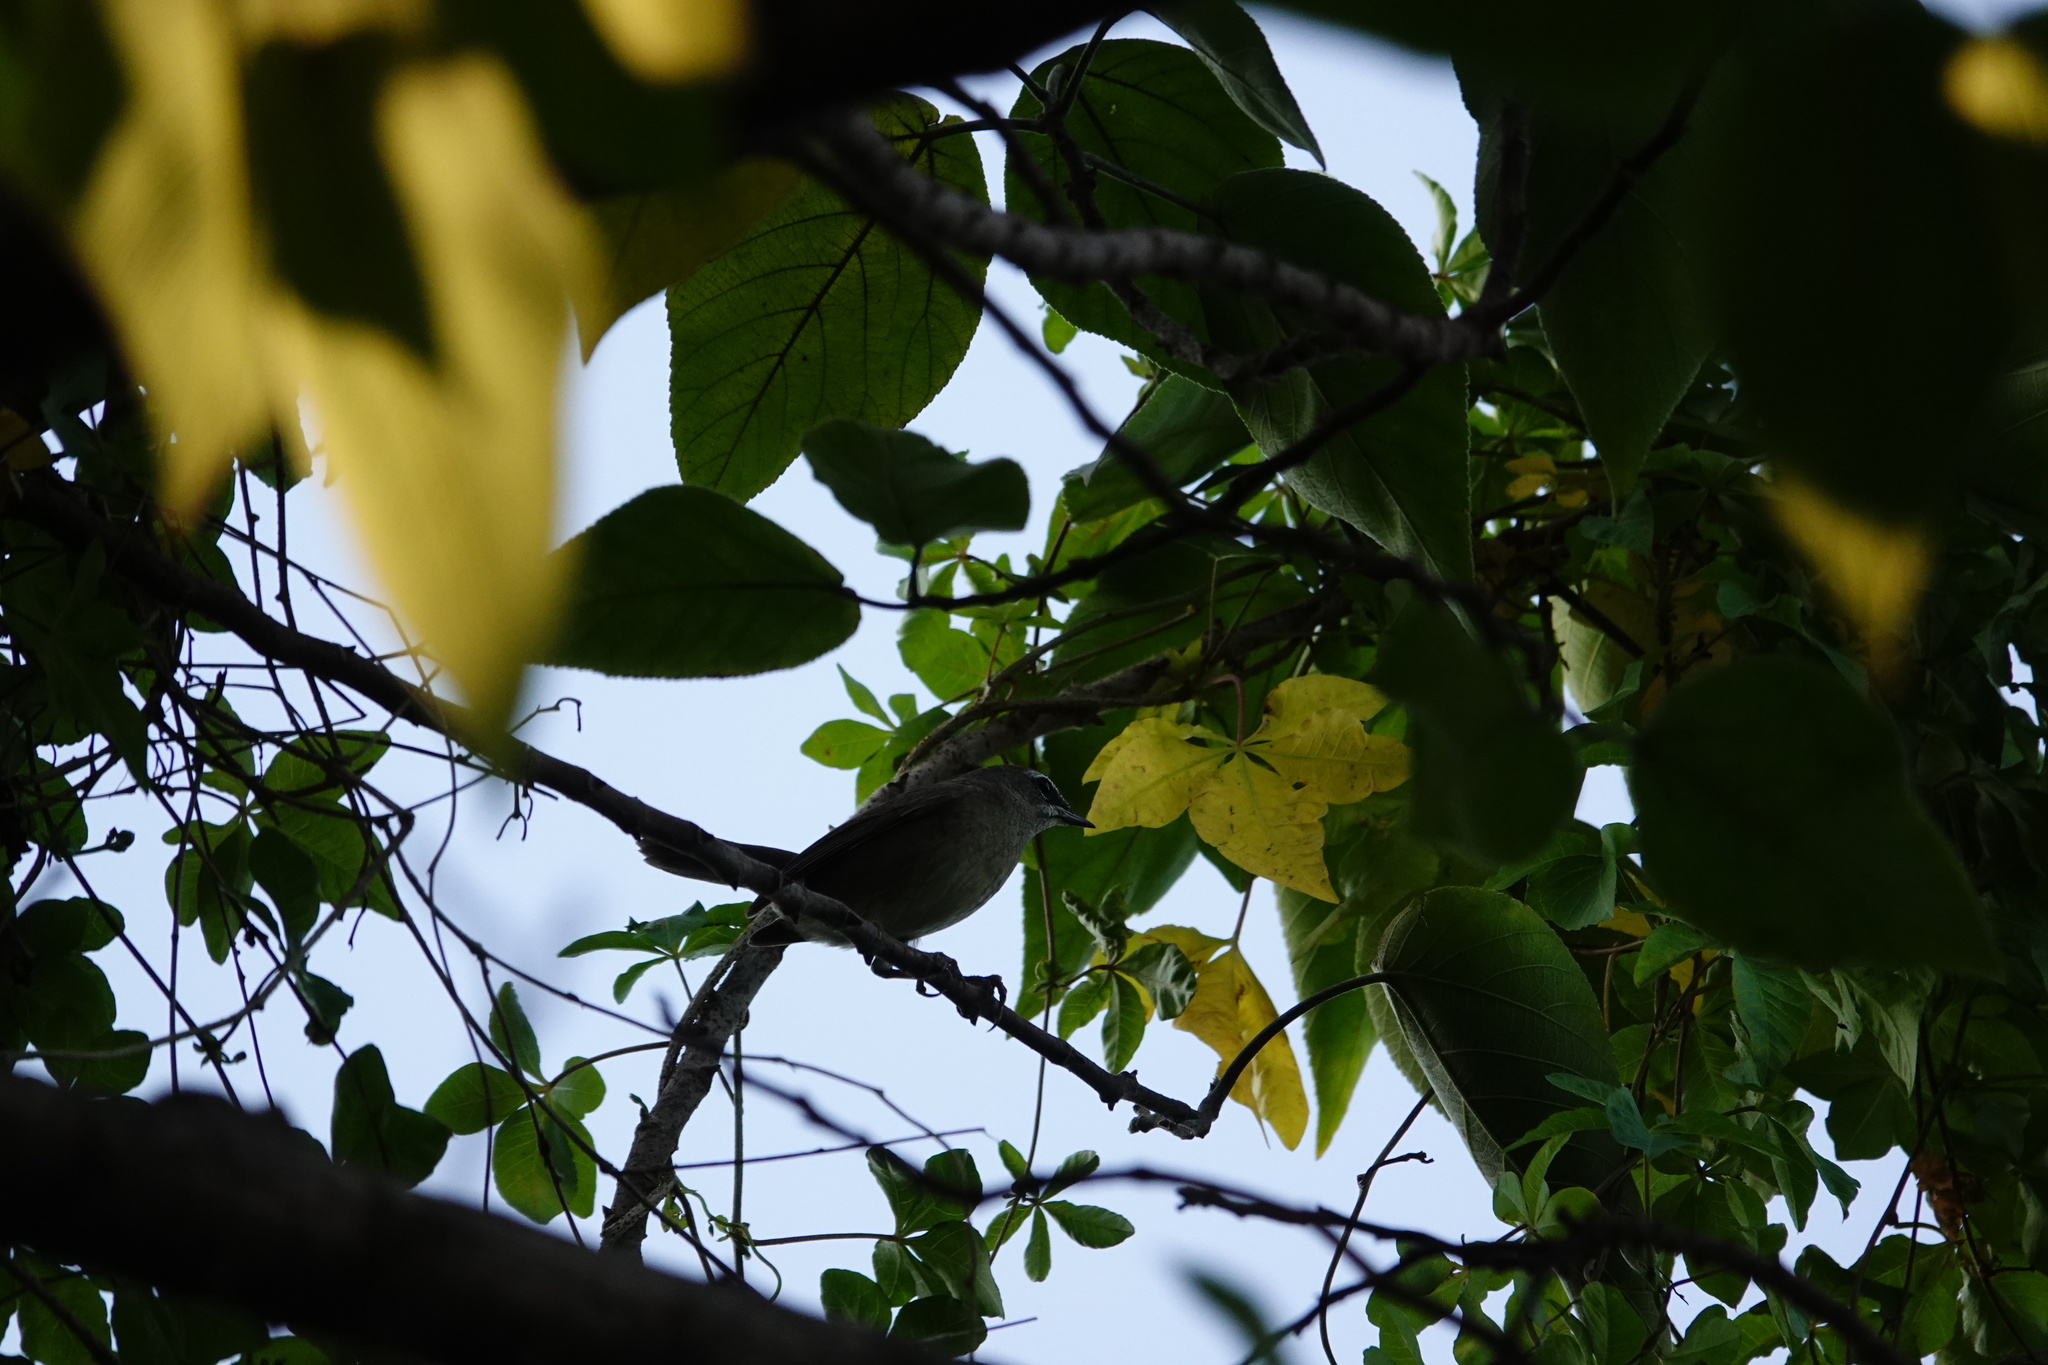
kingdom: Animalia
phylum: Chordata
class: Aves
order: Passeriformes
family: Muscicapidae
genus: Luscinia
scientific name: Luscinia calliope
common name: Siberian rubythroat
